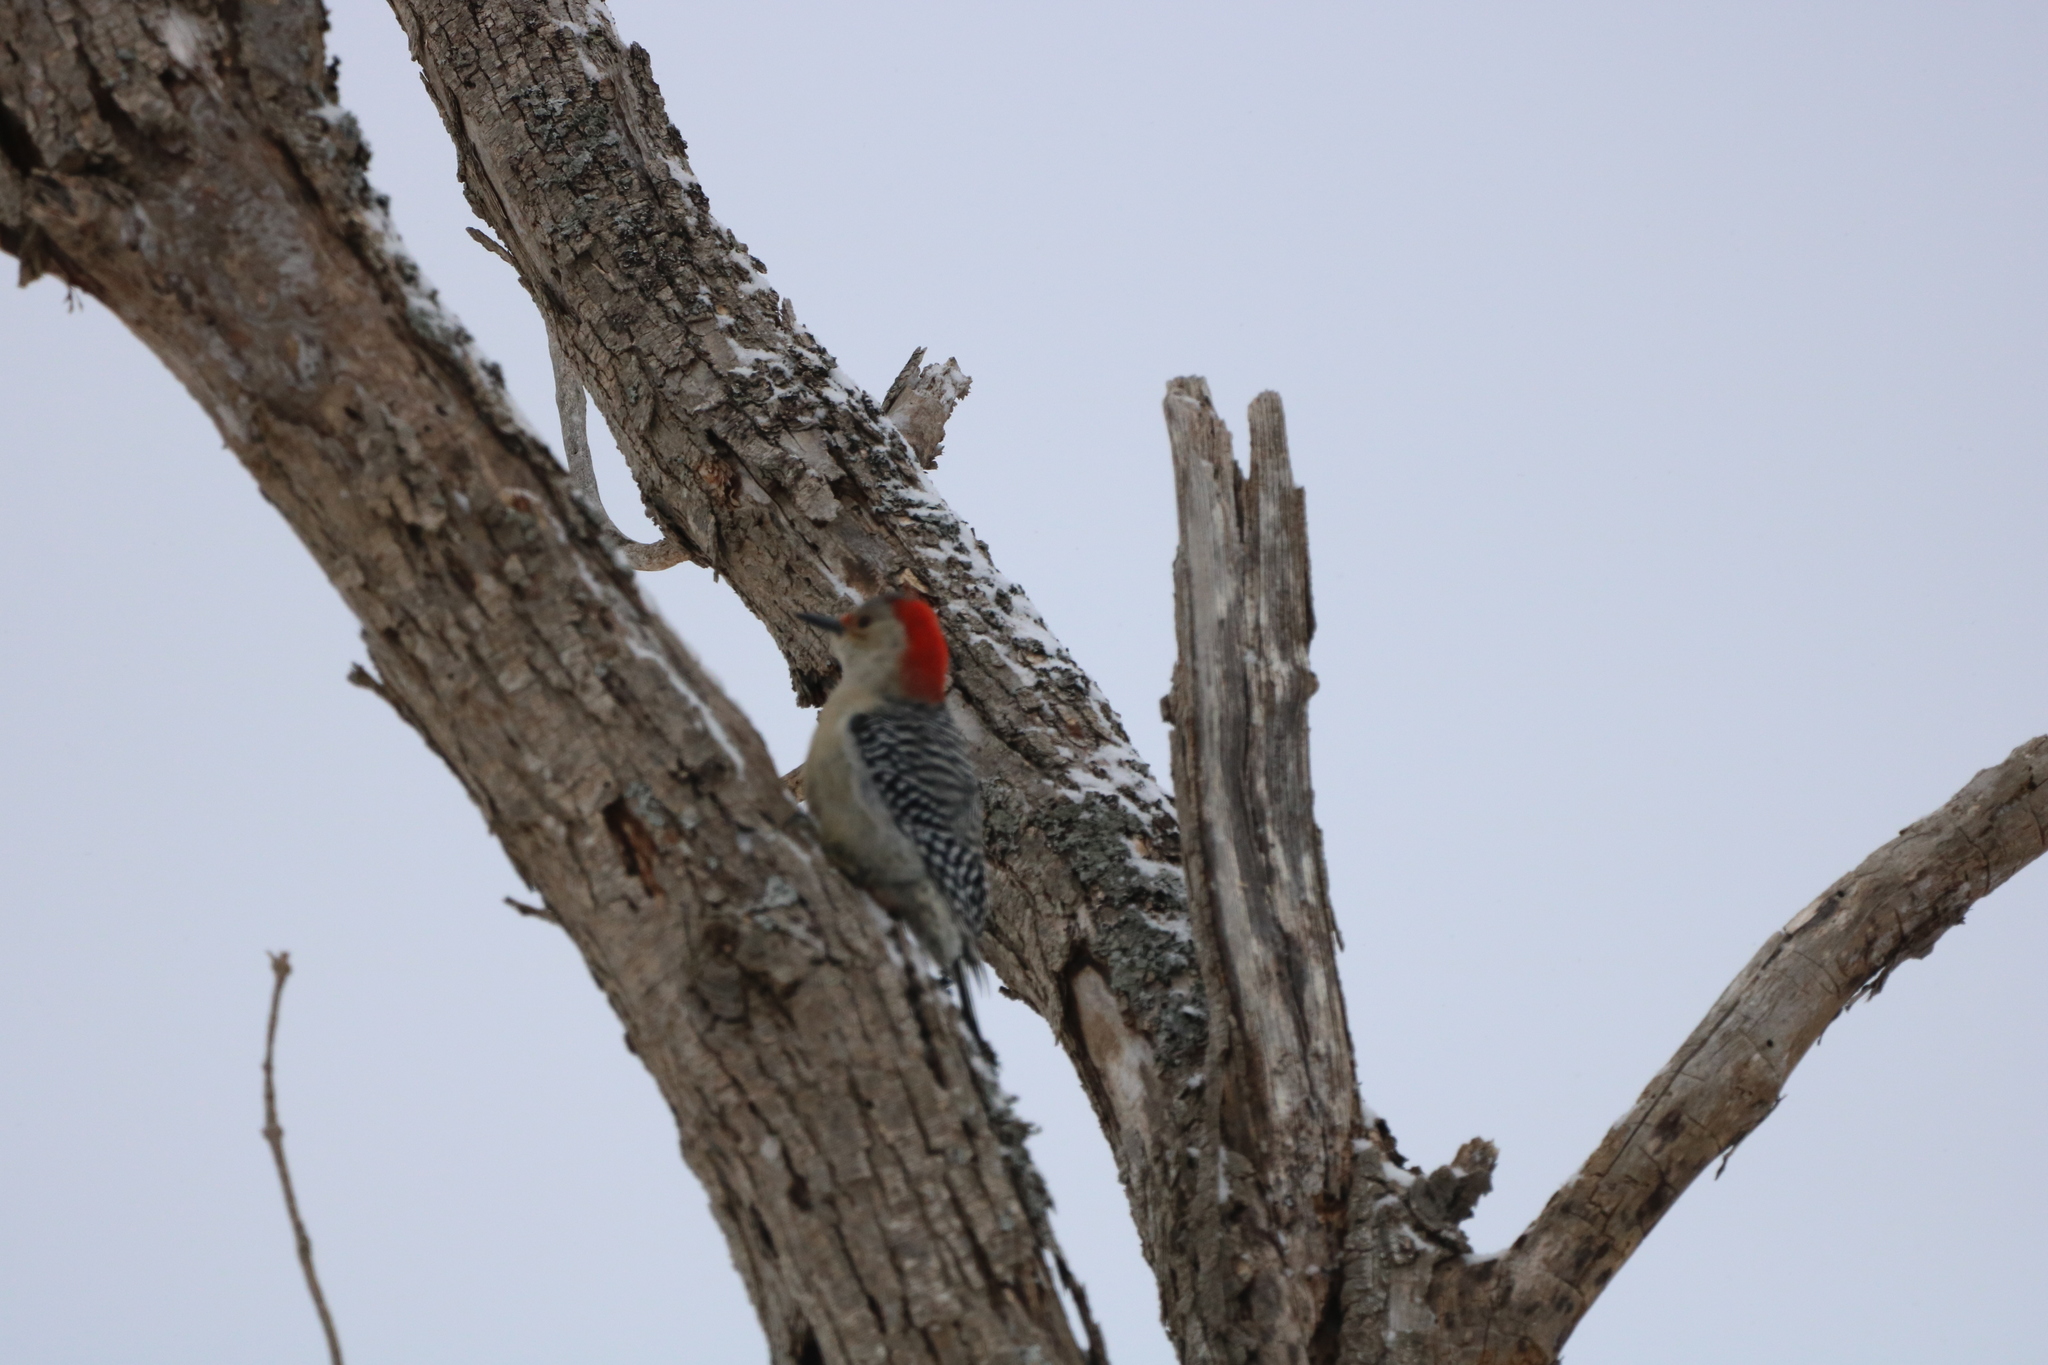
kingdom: Animalia
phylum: Chordata
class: Aves
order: Piciformes
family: Picidae
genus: Melanerpes
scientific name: Melanerpes carolinus
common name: Red-bellied woodpecker
